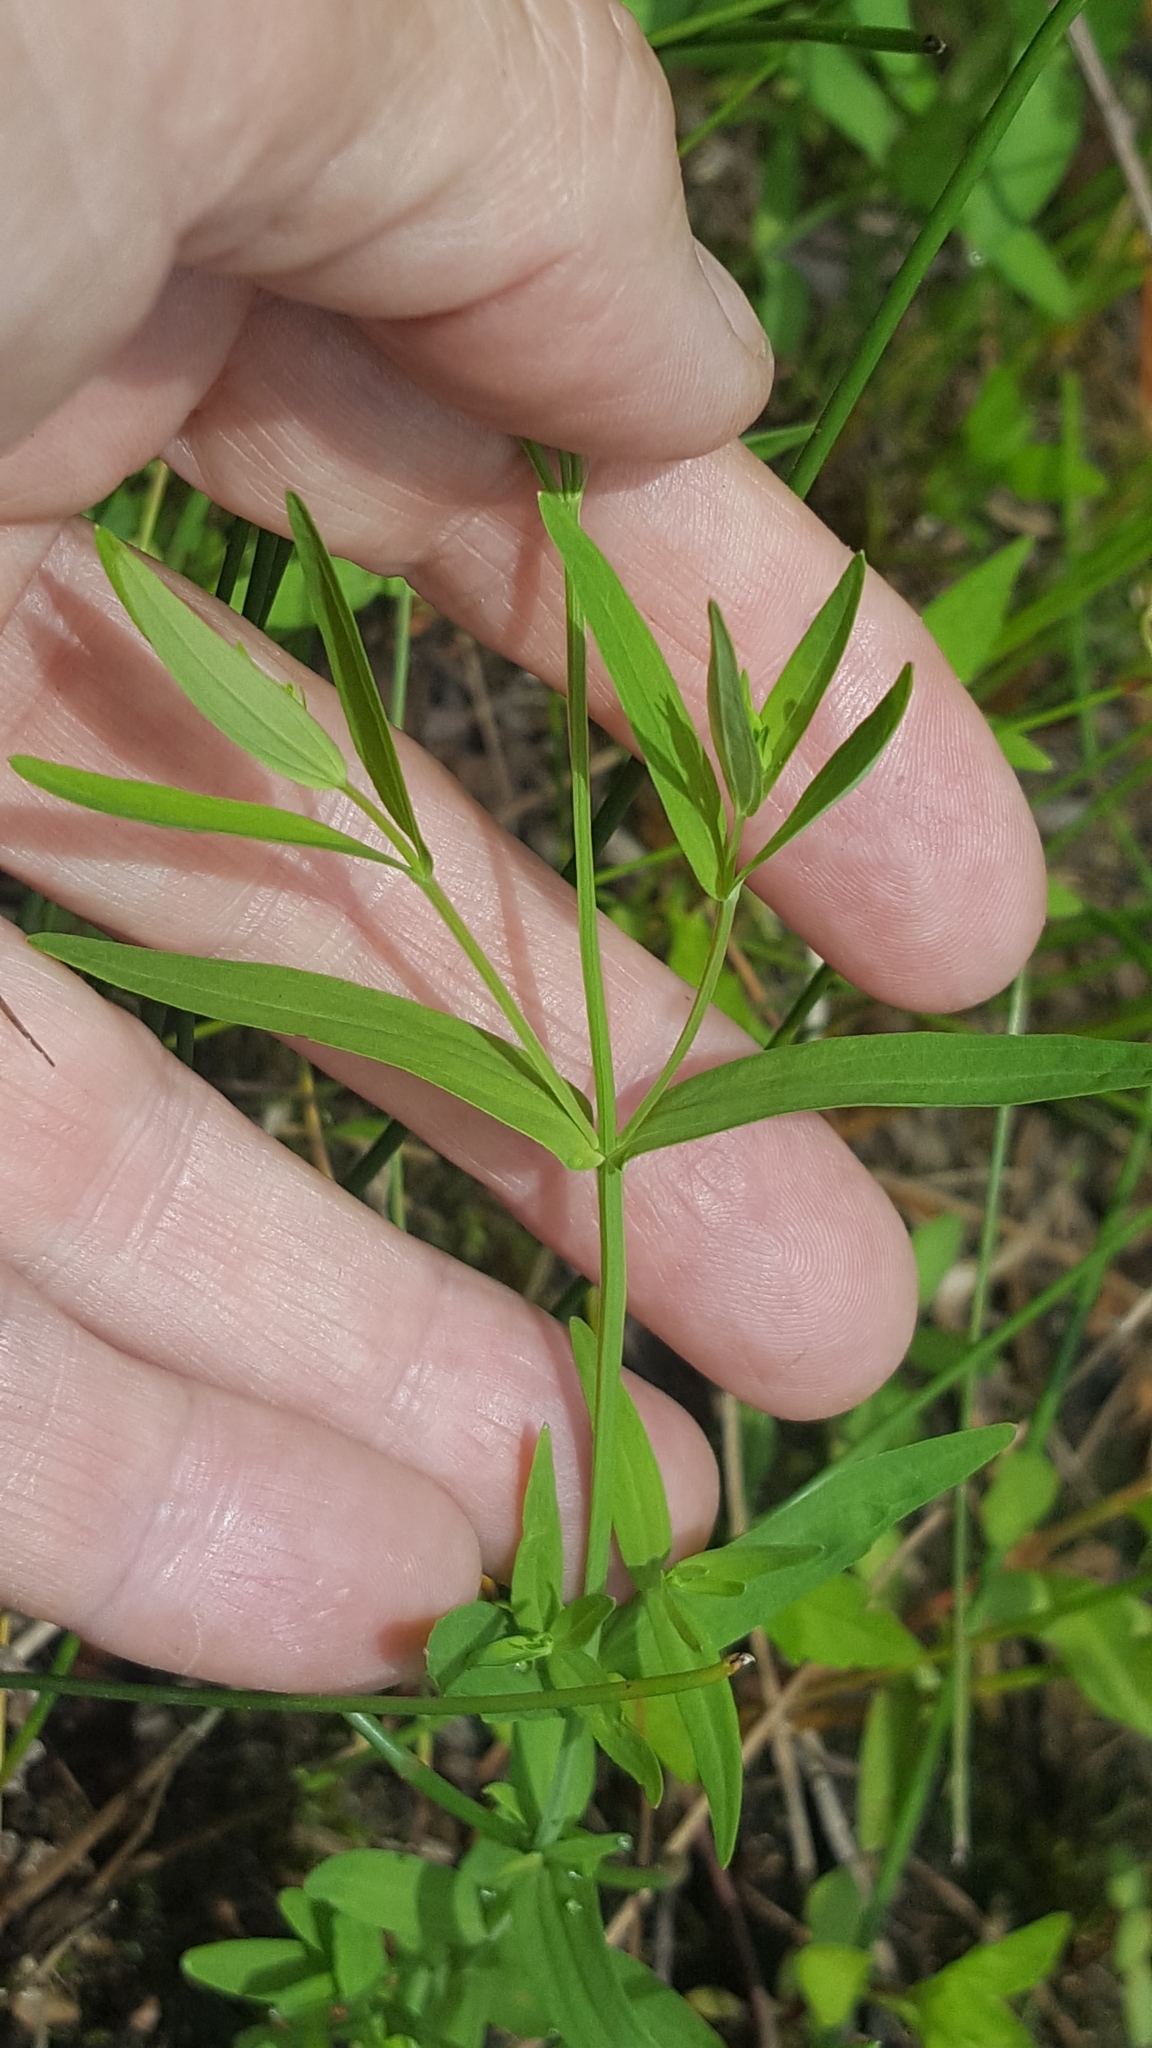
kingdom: Plantae
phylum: Tracheophyta
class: Magnoliopsida
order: Malpighiales
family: Hypericaceae
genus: Hypericum
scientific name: Hypericum majus
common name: Greater canadian st. john's-wort
